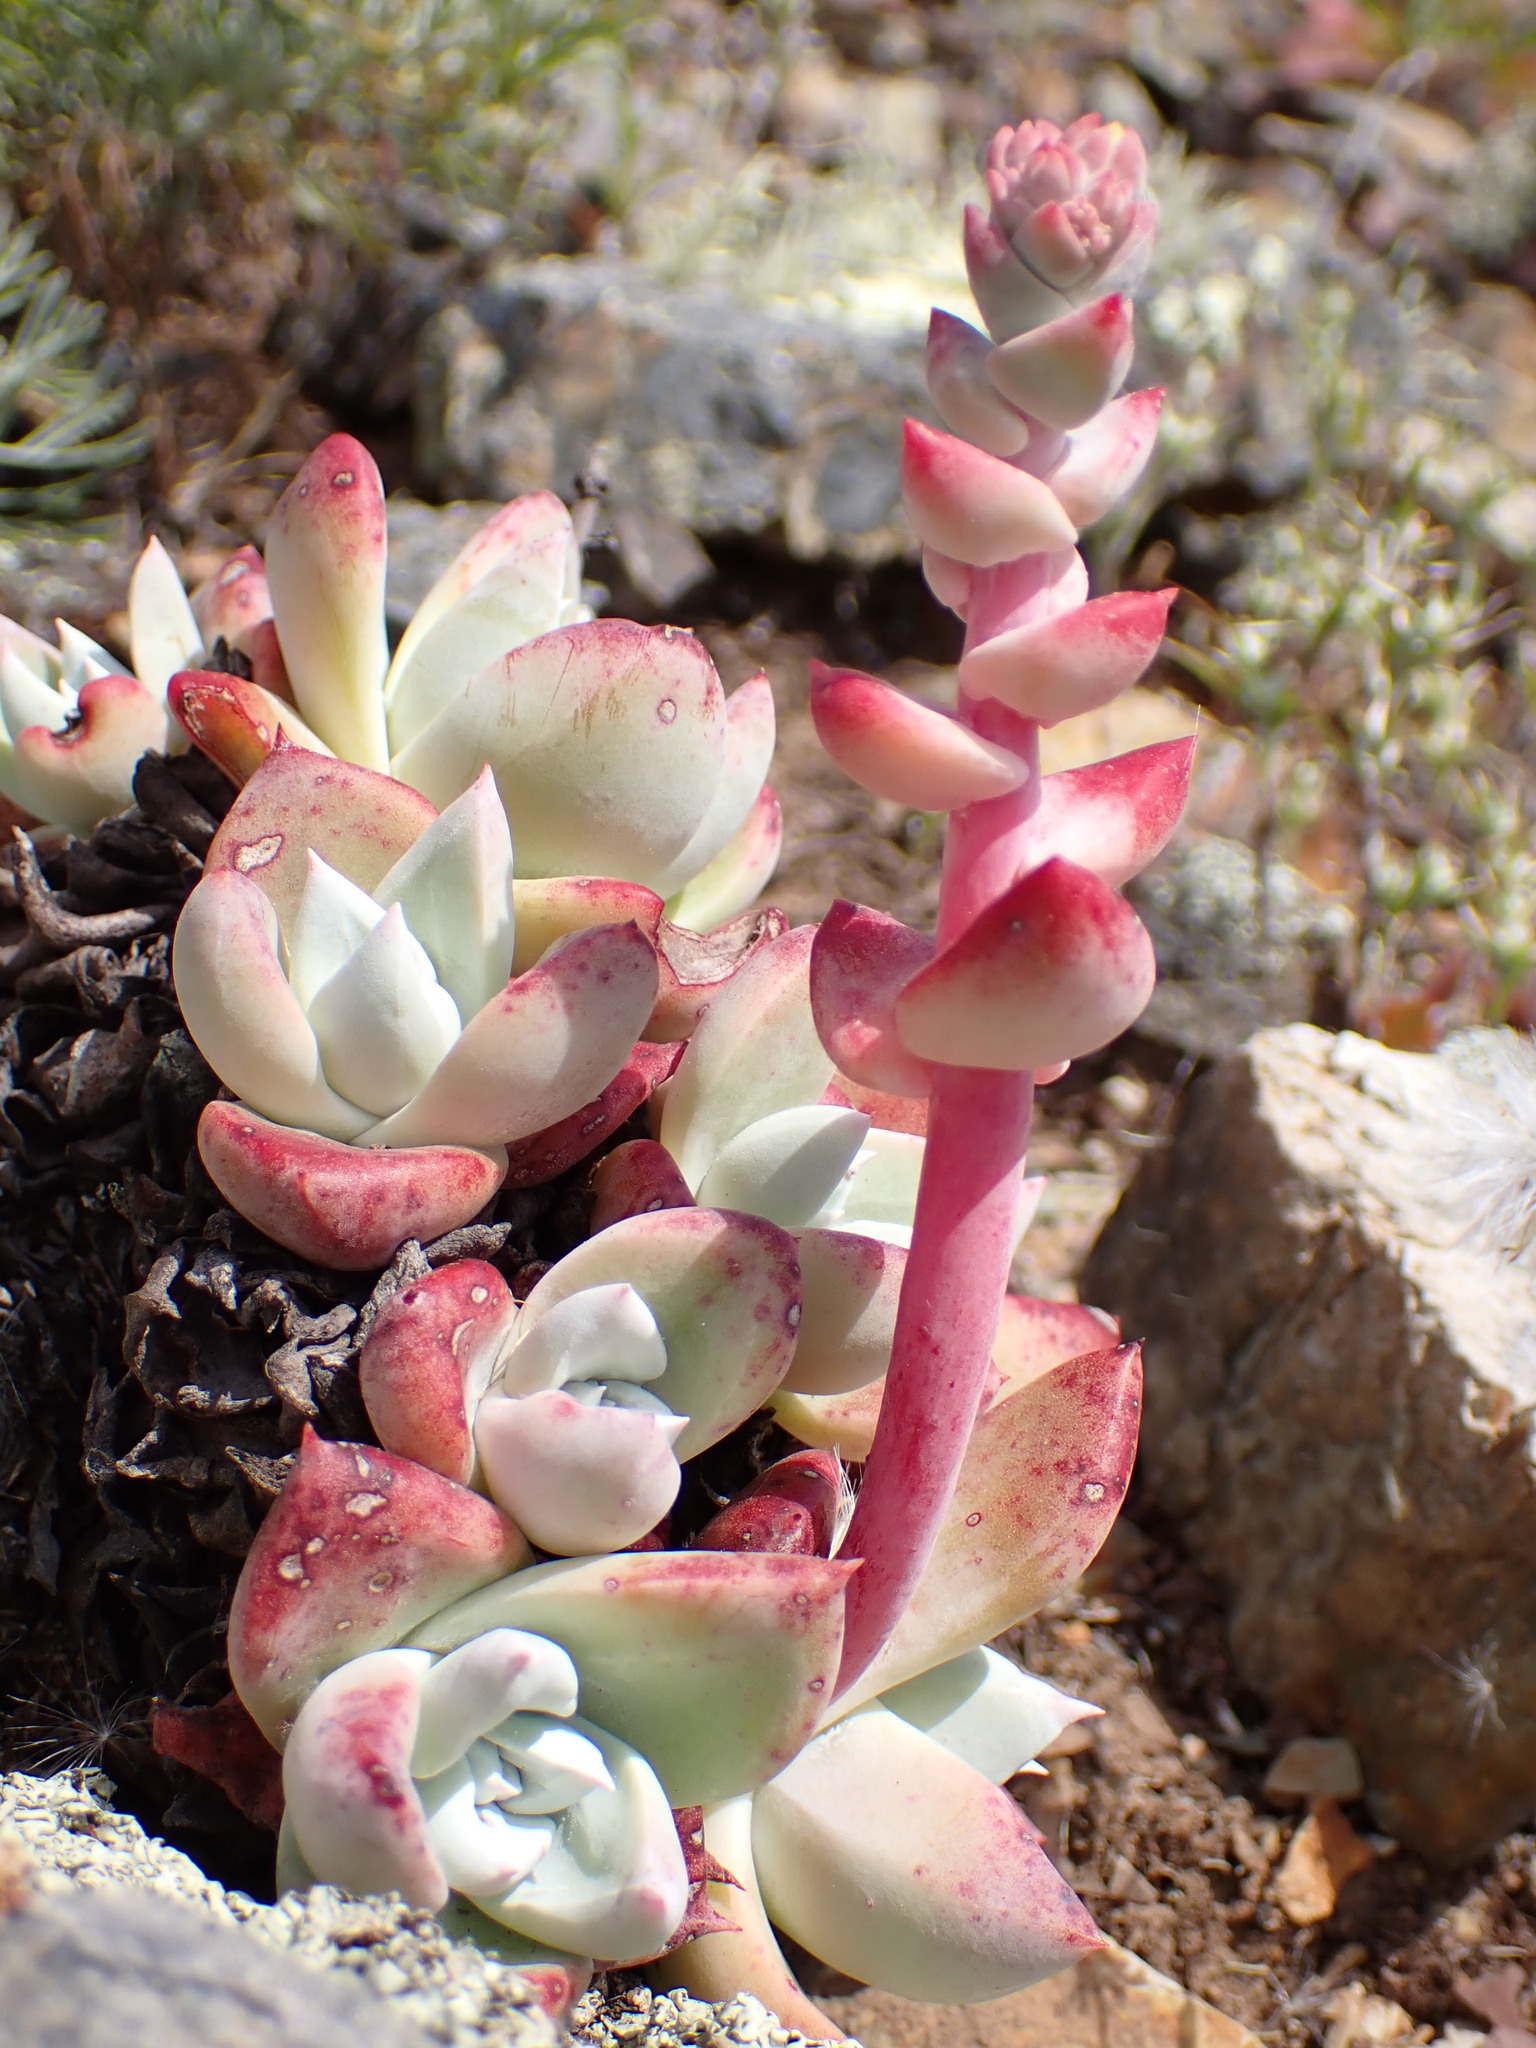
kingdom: Plantae
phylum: Tracheophyta
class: Magnoliopsida
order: Saxifragales
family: Crassulaceae
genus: Dudleya
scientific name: Dudleya farinosa
